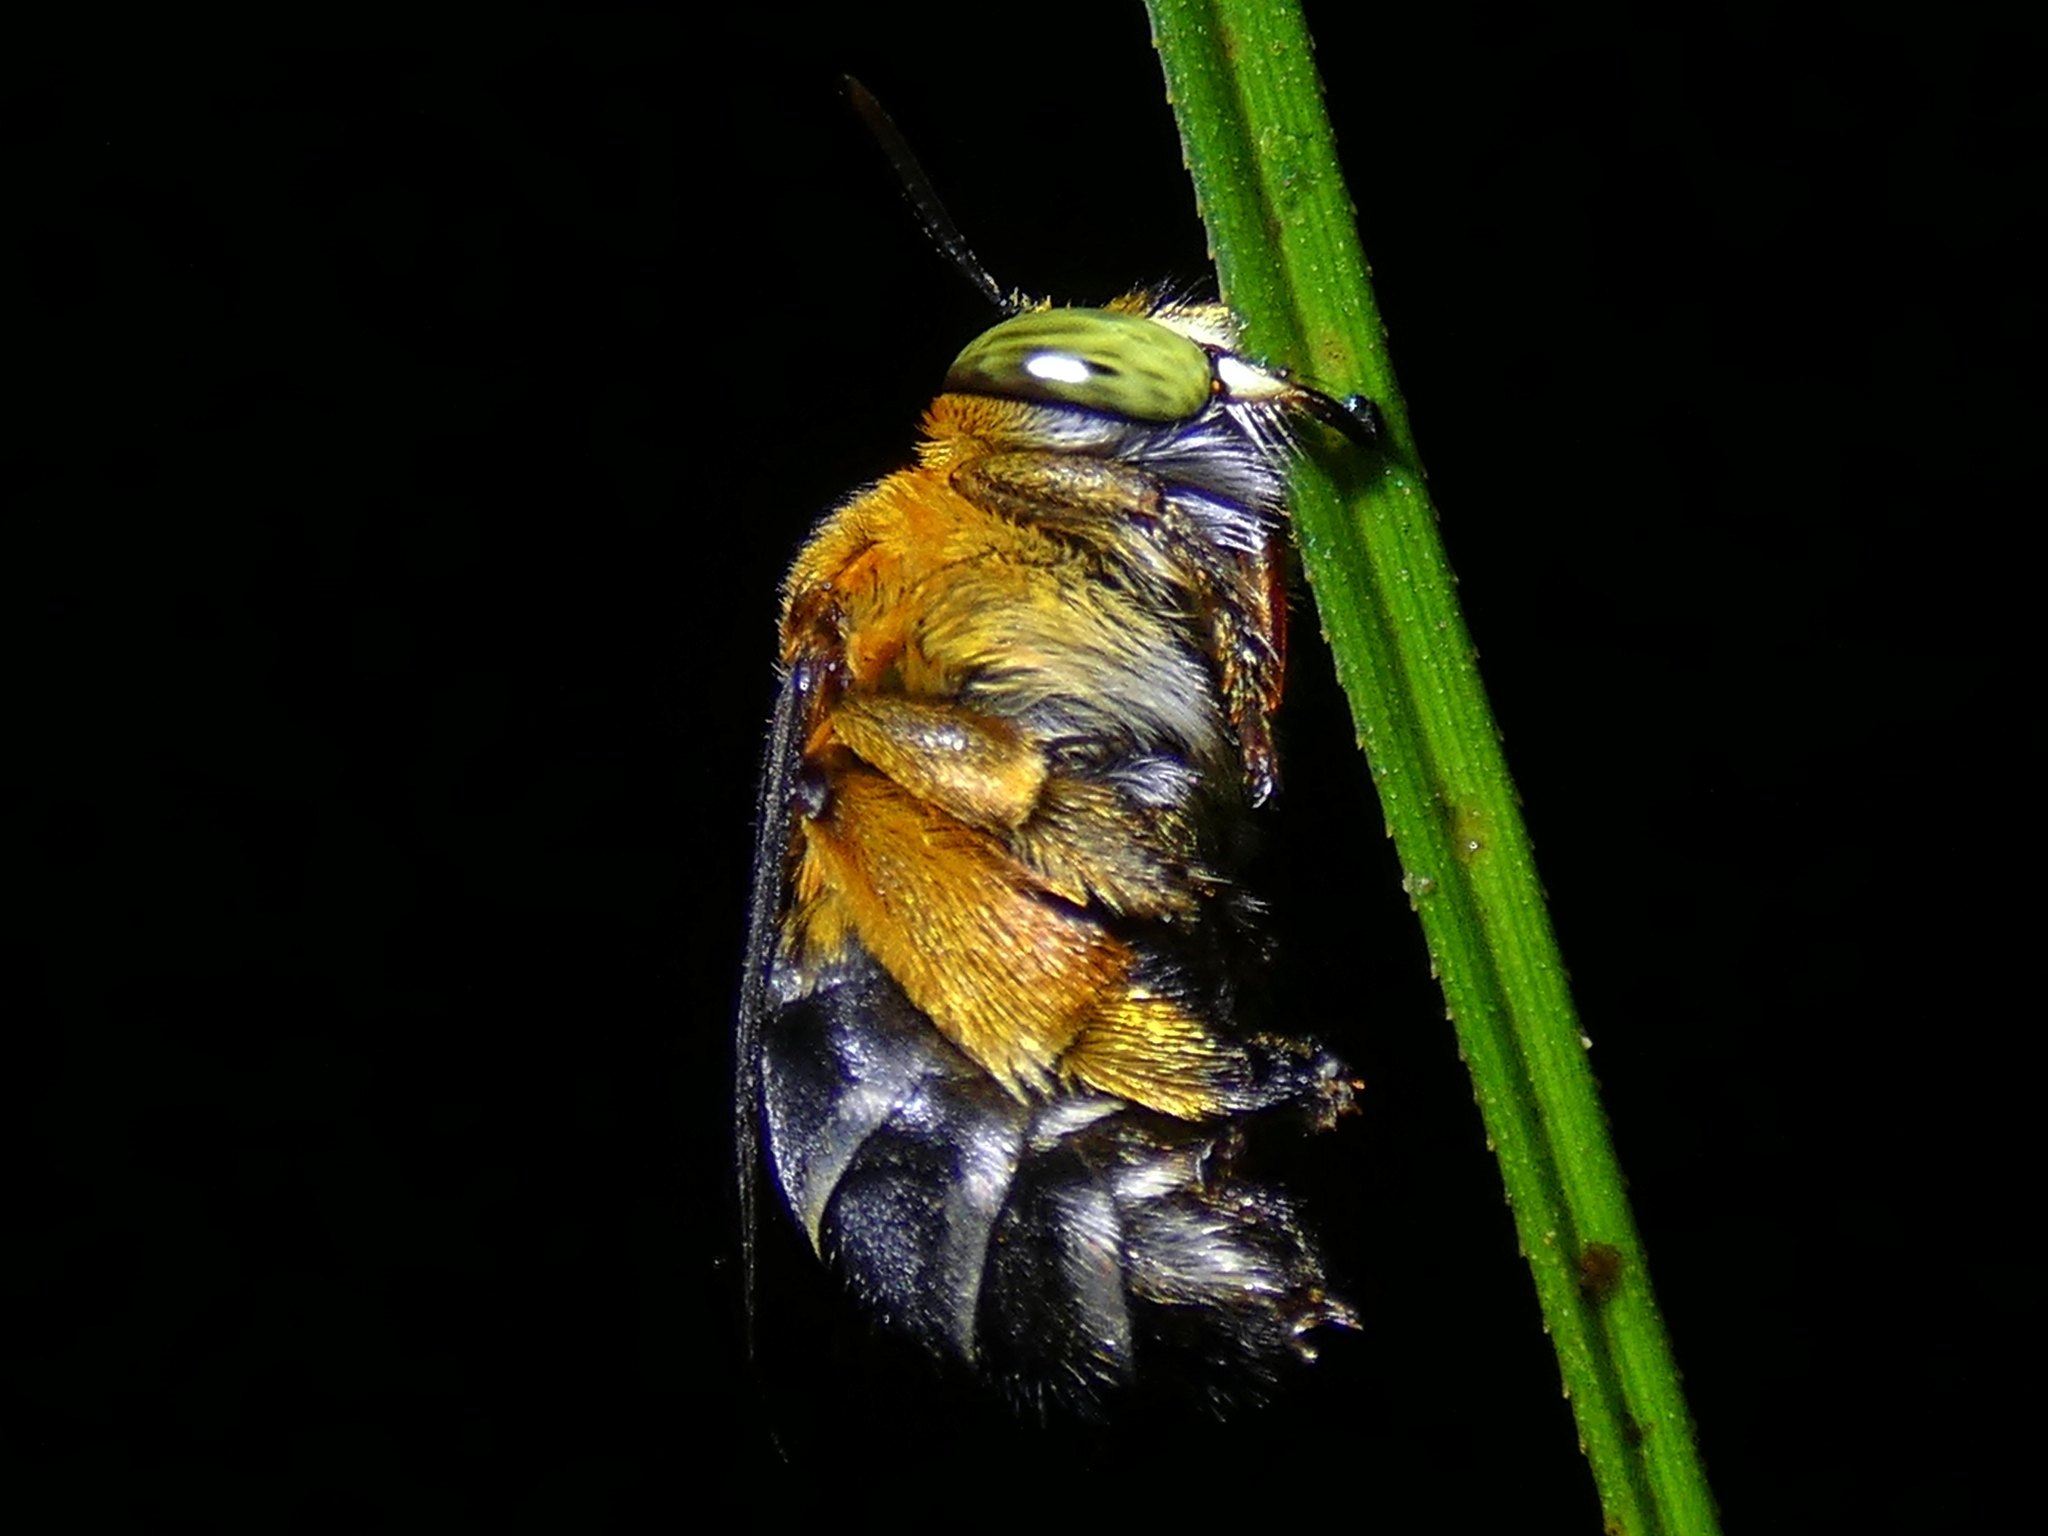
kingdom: Animalia
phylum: Arthropoda
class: Insecta
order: Hymenoptera
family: Apidae
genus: Amegilla
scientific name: Amegilla cingulata
